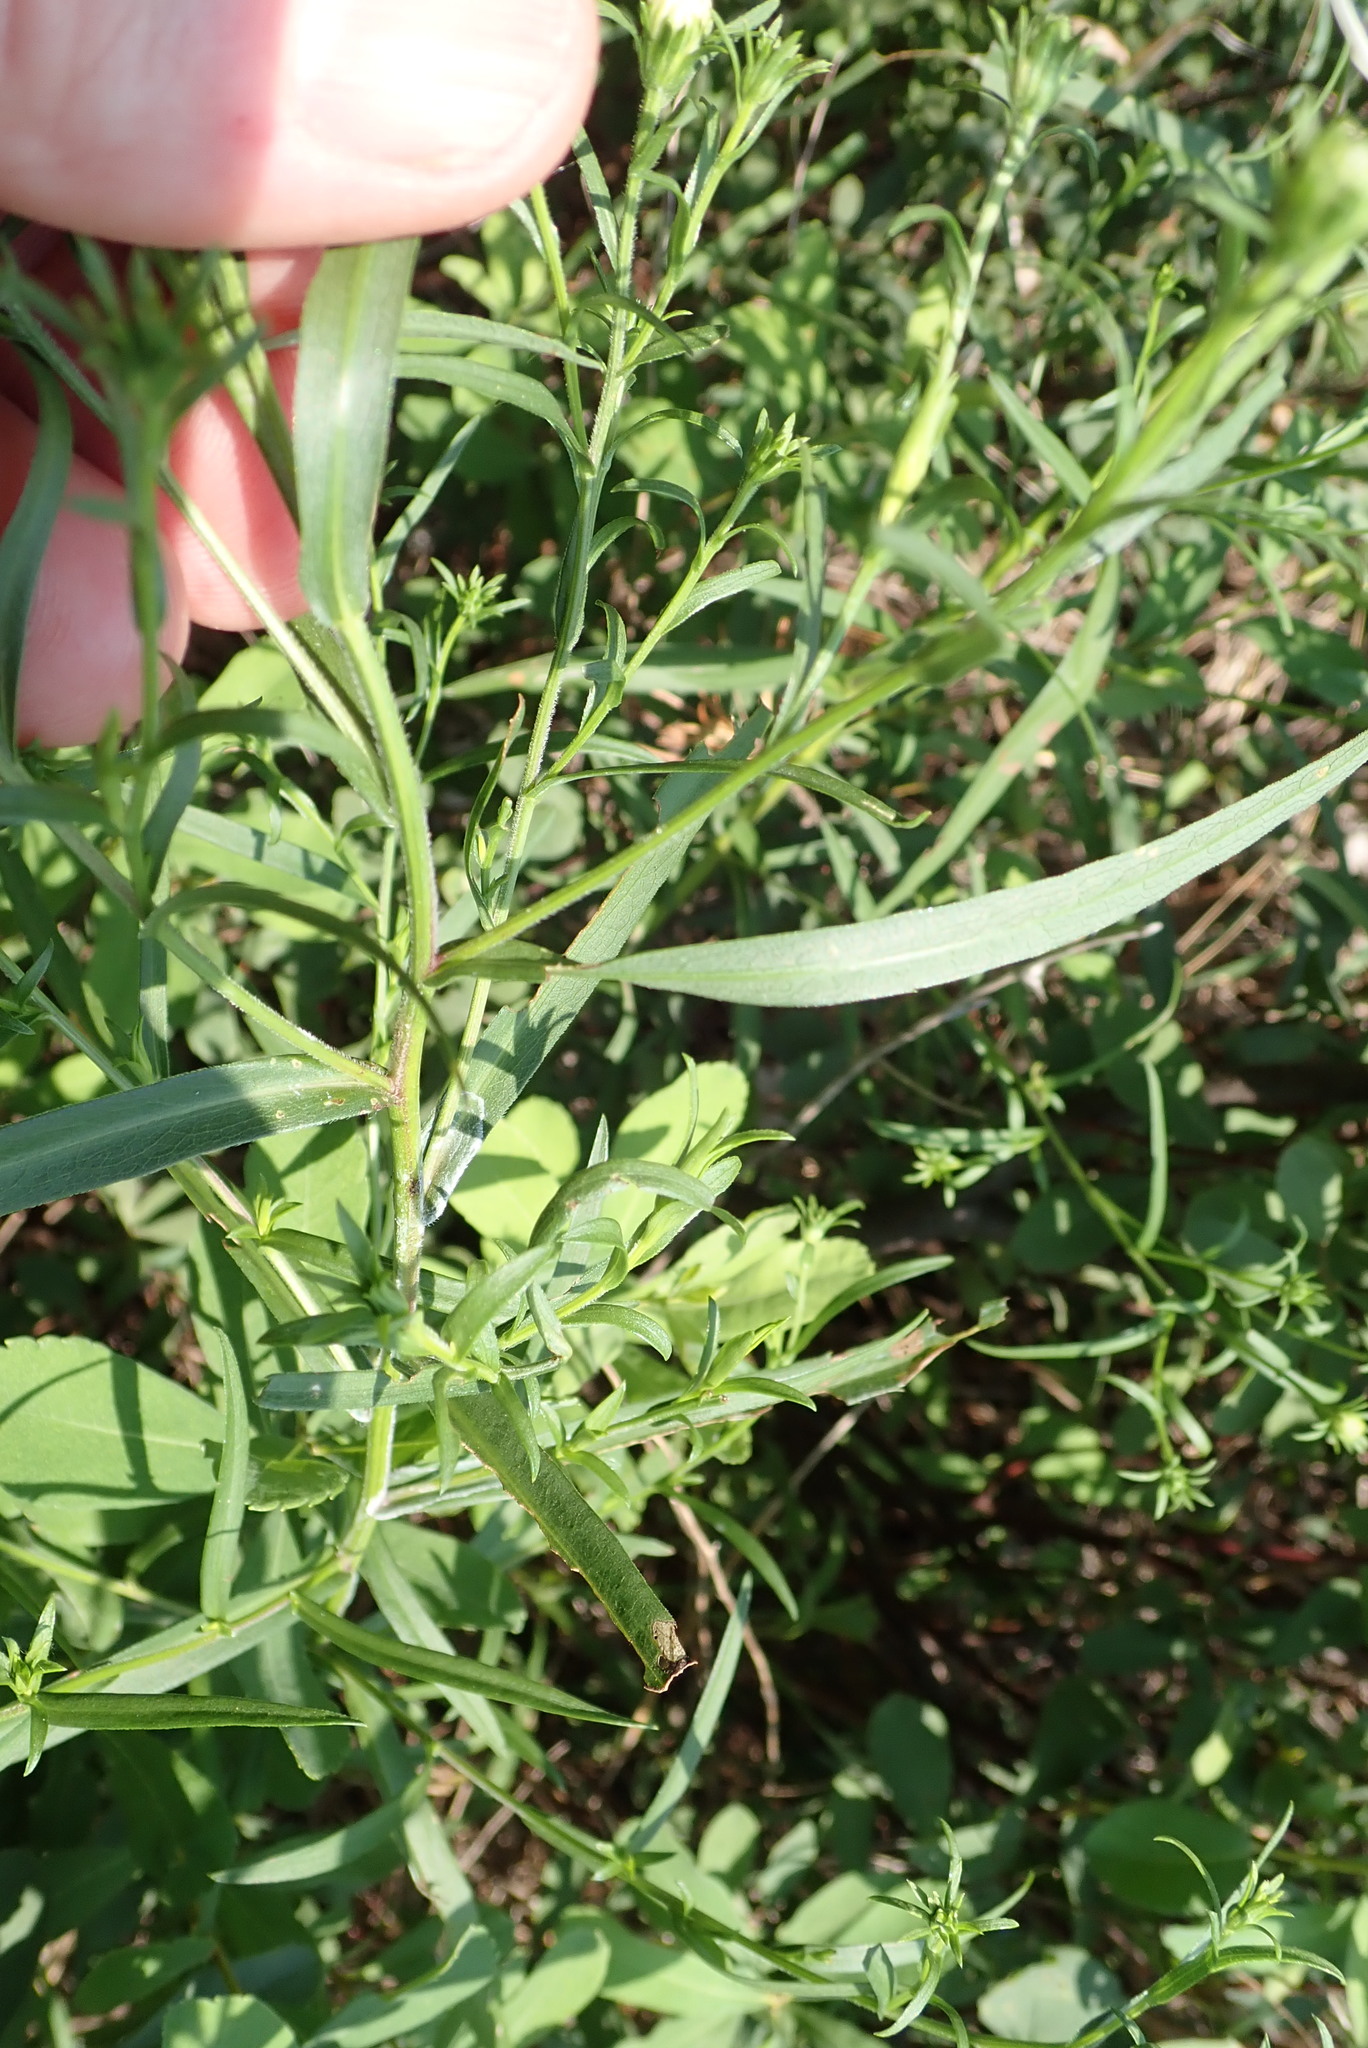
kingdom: Plantae
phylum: Tracheophyta
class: Magnoliopsida
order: Asterales
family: Asteraceae
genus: Symphyotrichum
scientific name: Symphyotrichum lanceolatum
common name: Panicled aster
